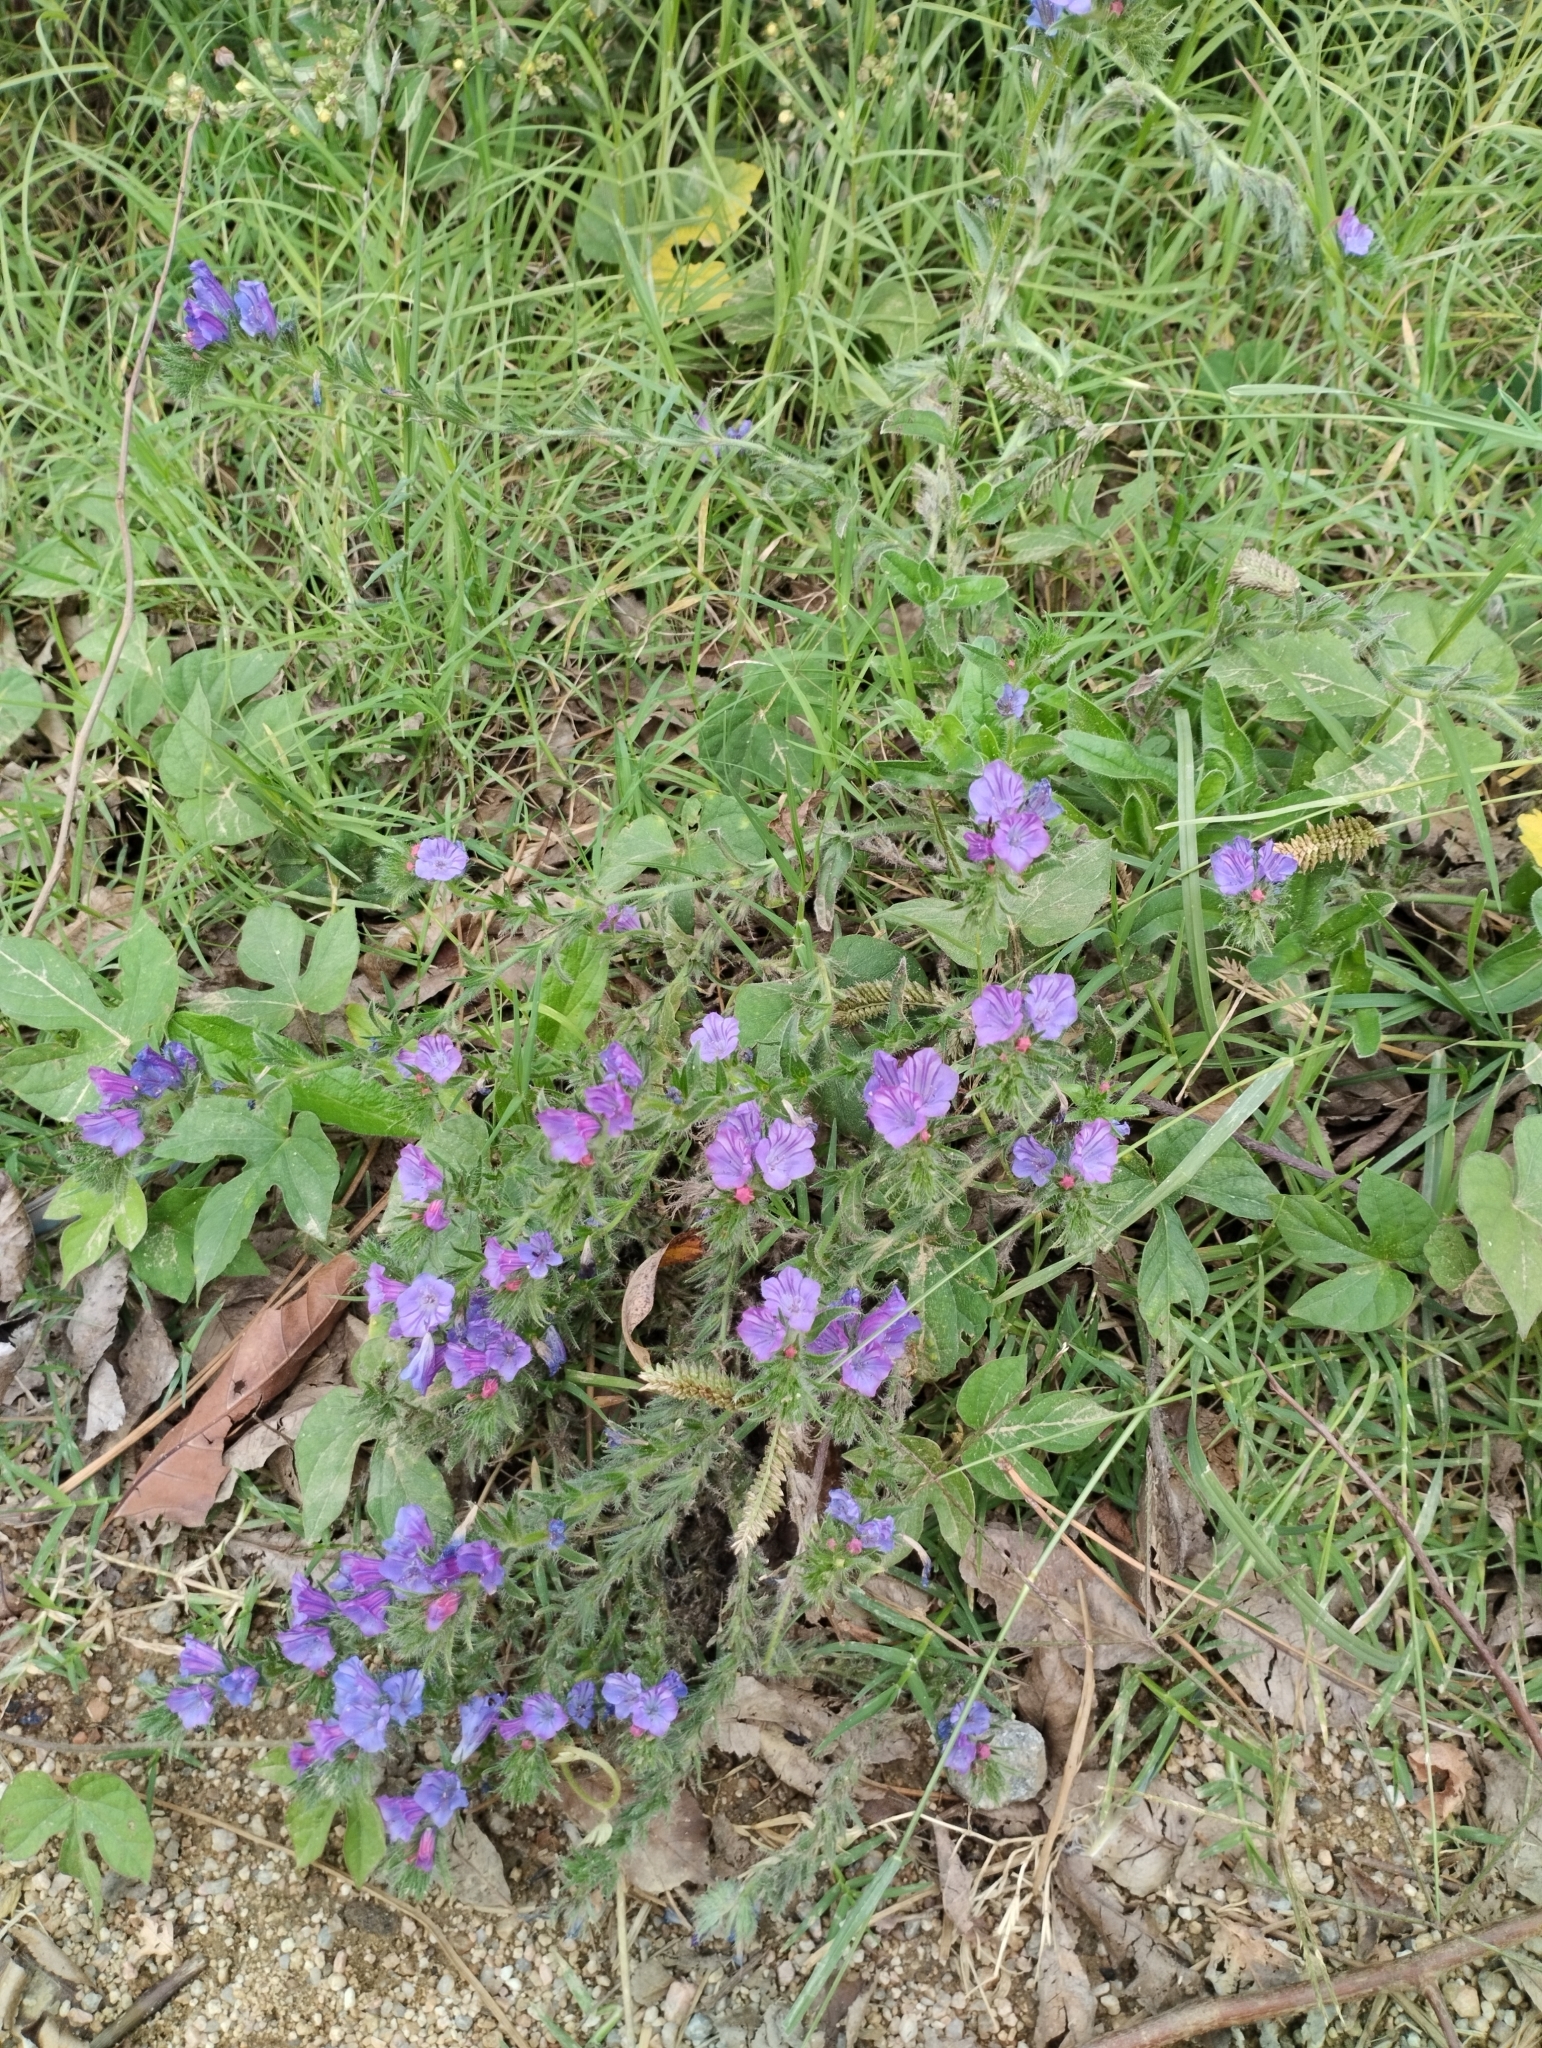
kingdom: Plantae
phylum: Tracheophyta
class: Magnoliopsida
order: Boraginales
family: Boraginaceae
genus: Echium
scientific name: Echium plantagineum
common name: Purple viper's-bugloss
